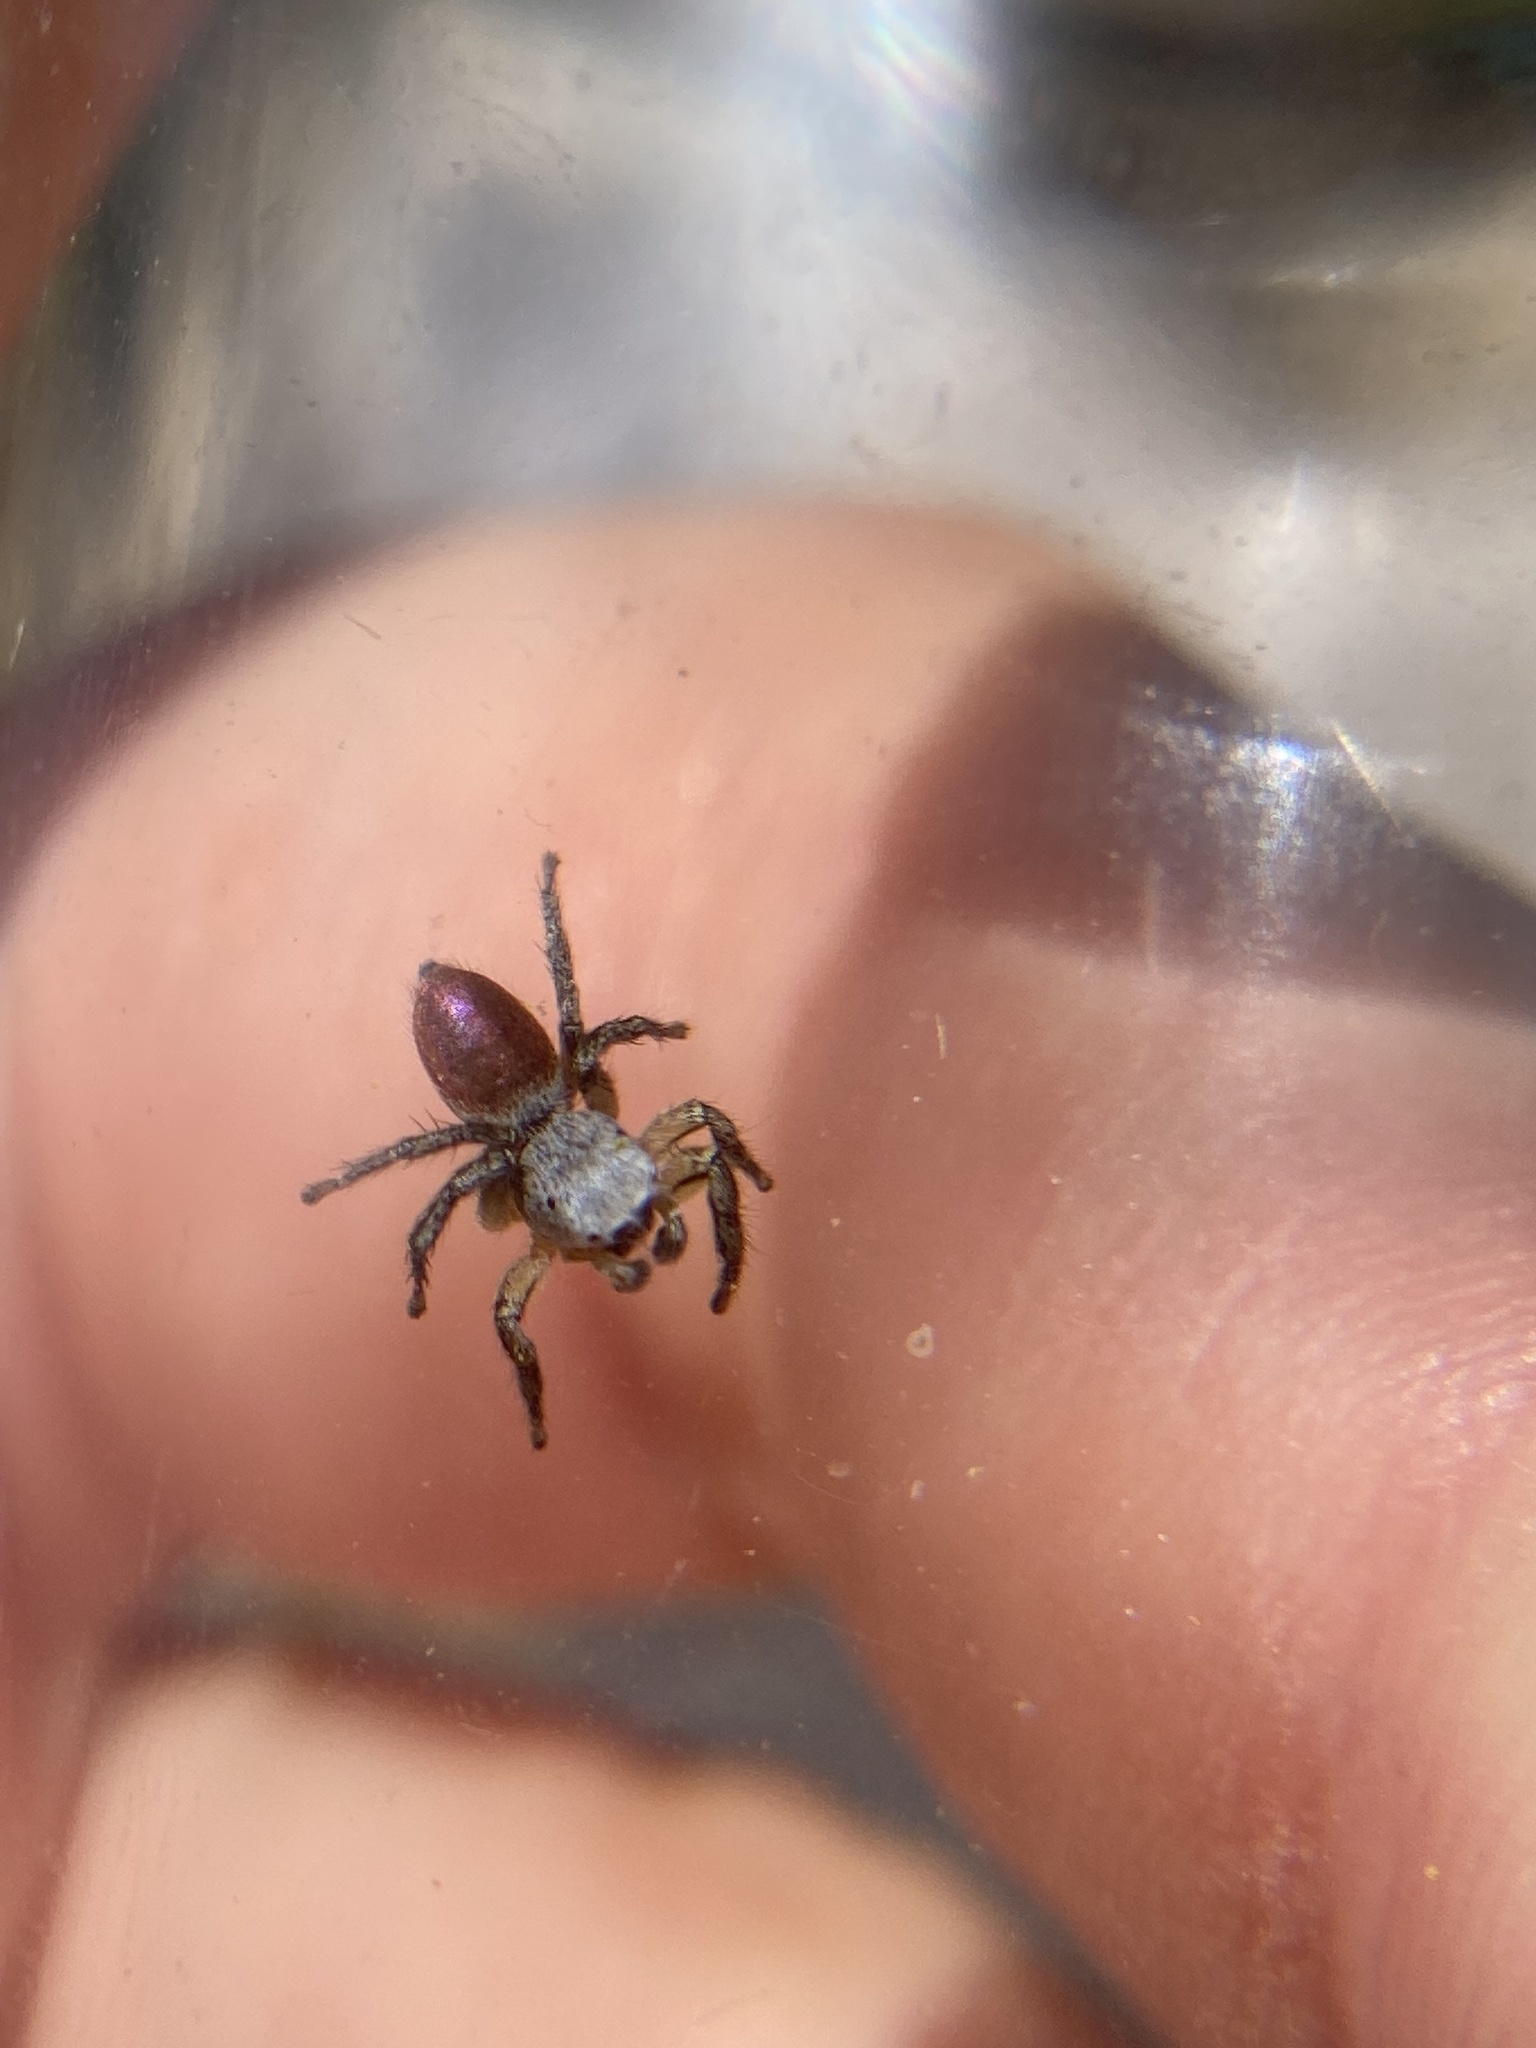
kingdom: Animalia
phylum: Arthropoda
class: Arachnida
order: Araneae
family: Salticidae
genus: Habronattus
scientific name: Habronattus decorus
